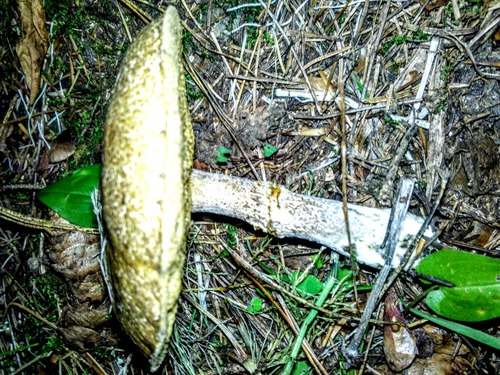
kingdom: Fungi
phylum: Basidiomycota
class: Agaricomycetes
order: Boletales
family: Suillaceae
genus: Suillus
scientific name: Suillus acidus
